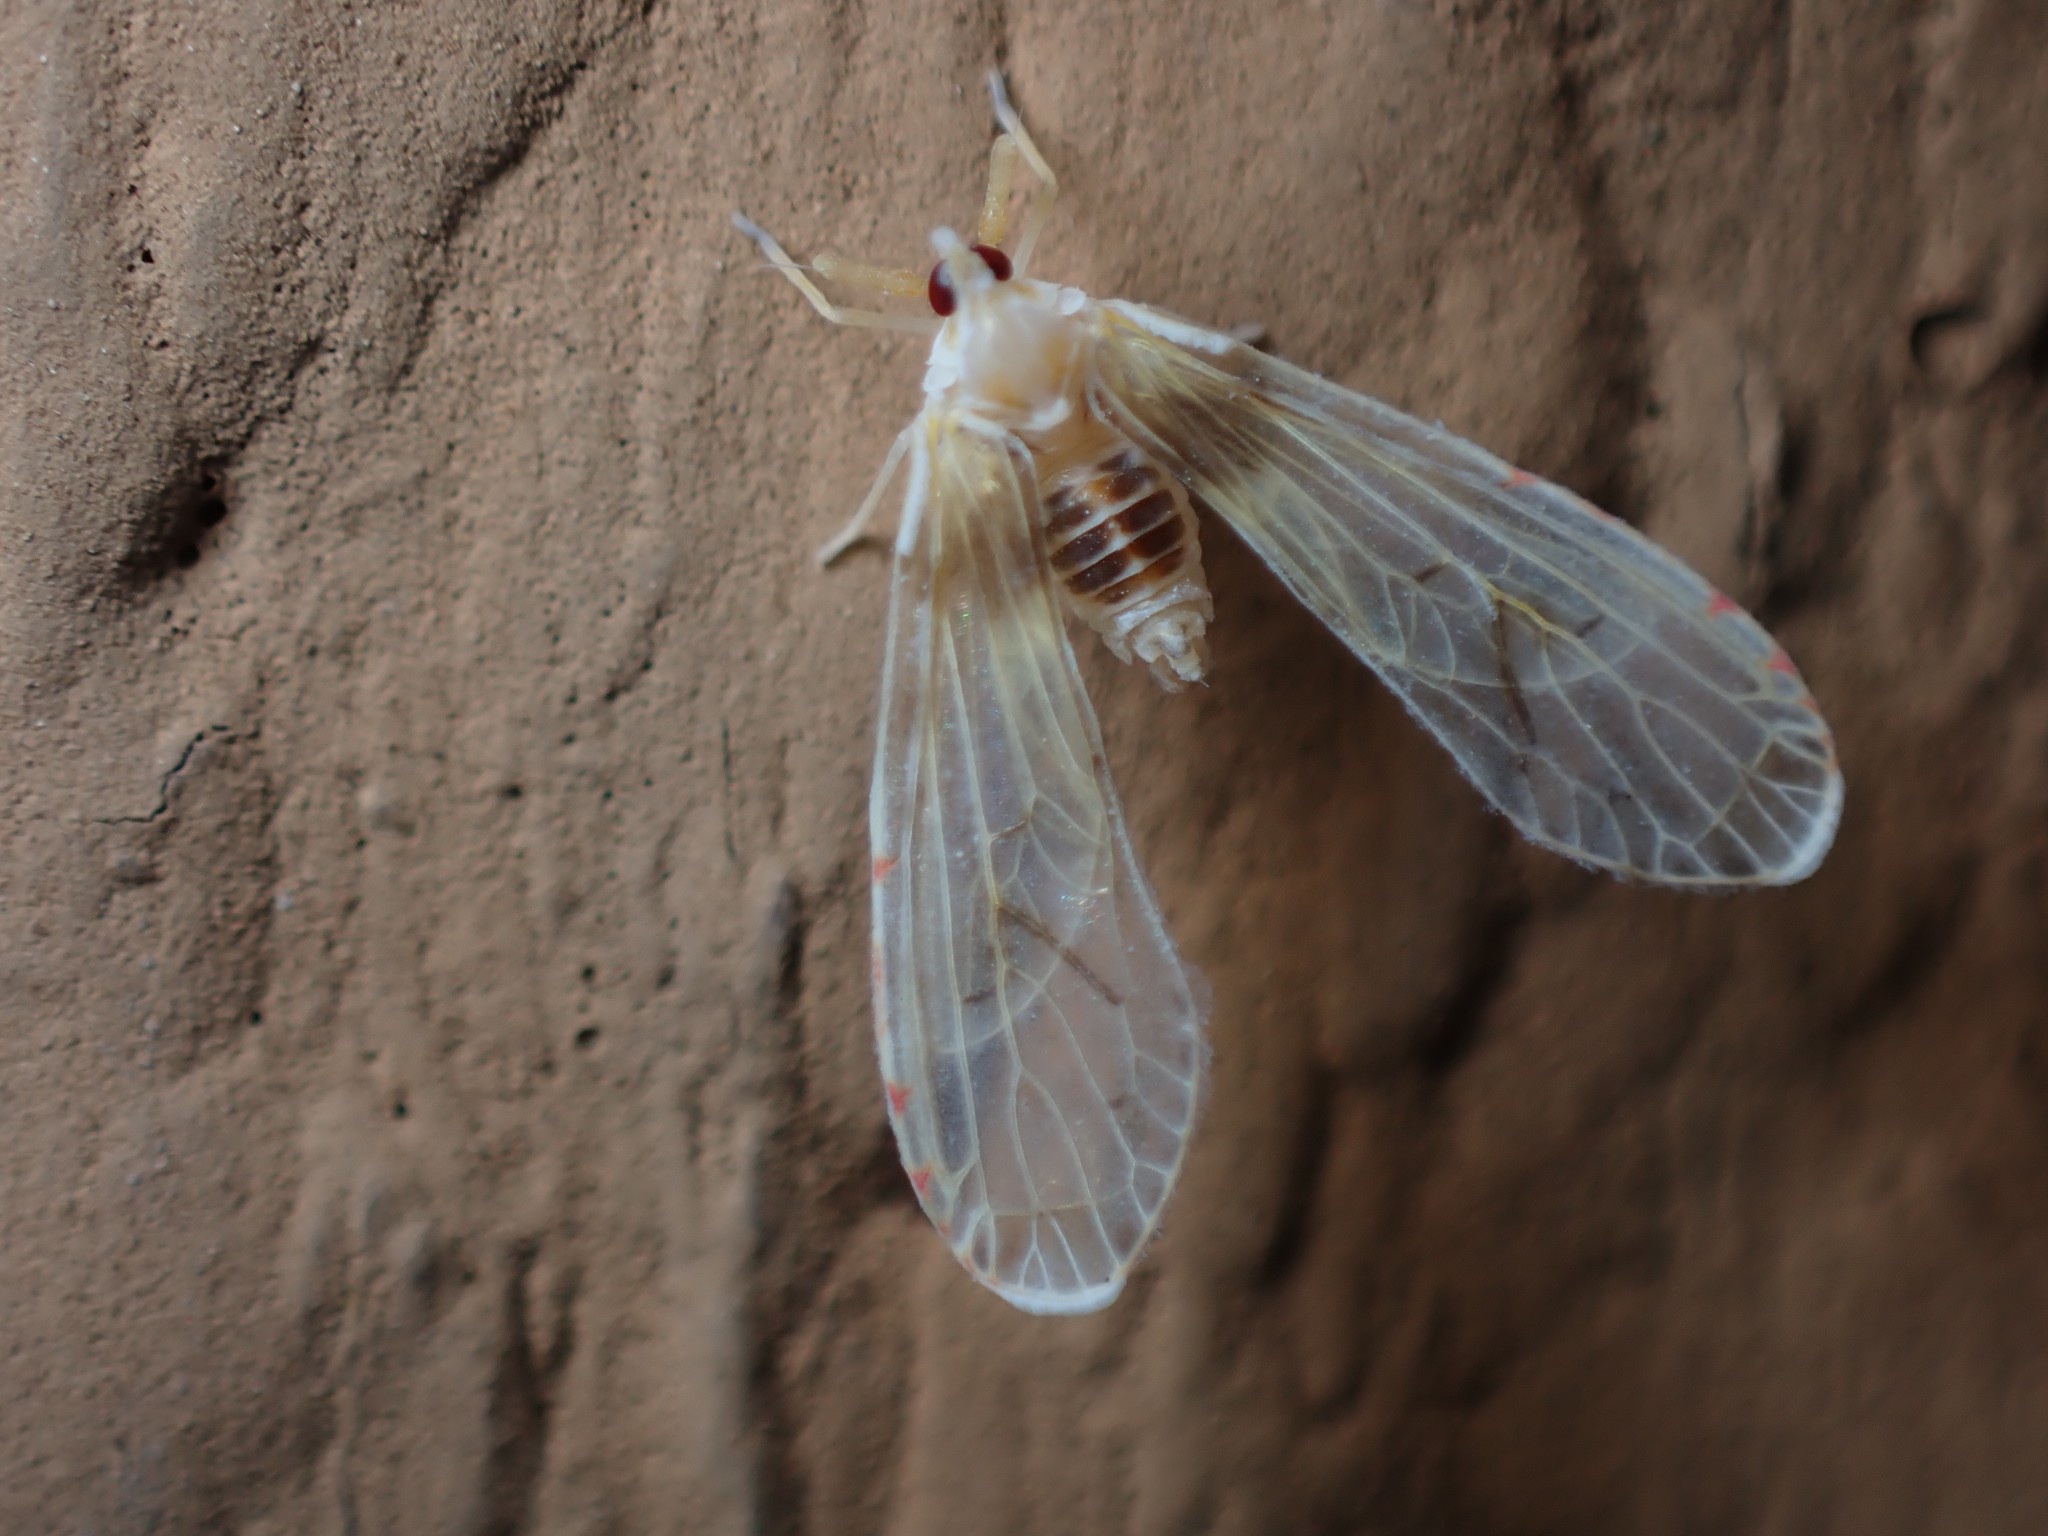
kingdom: Animalia
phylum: Arthropoda
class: Insecta
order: Hemiptera
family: Derbidae
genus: Anotia
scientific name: Anotia burnetii
